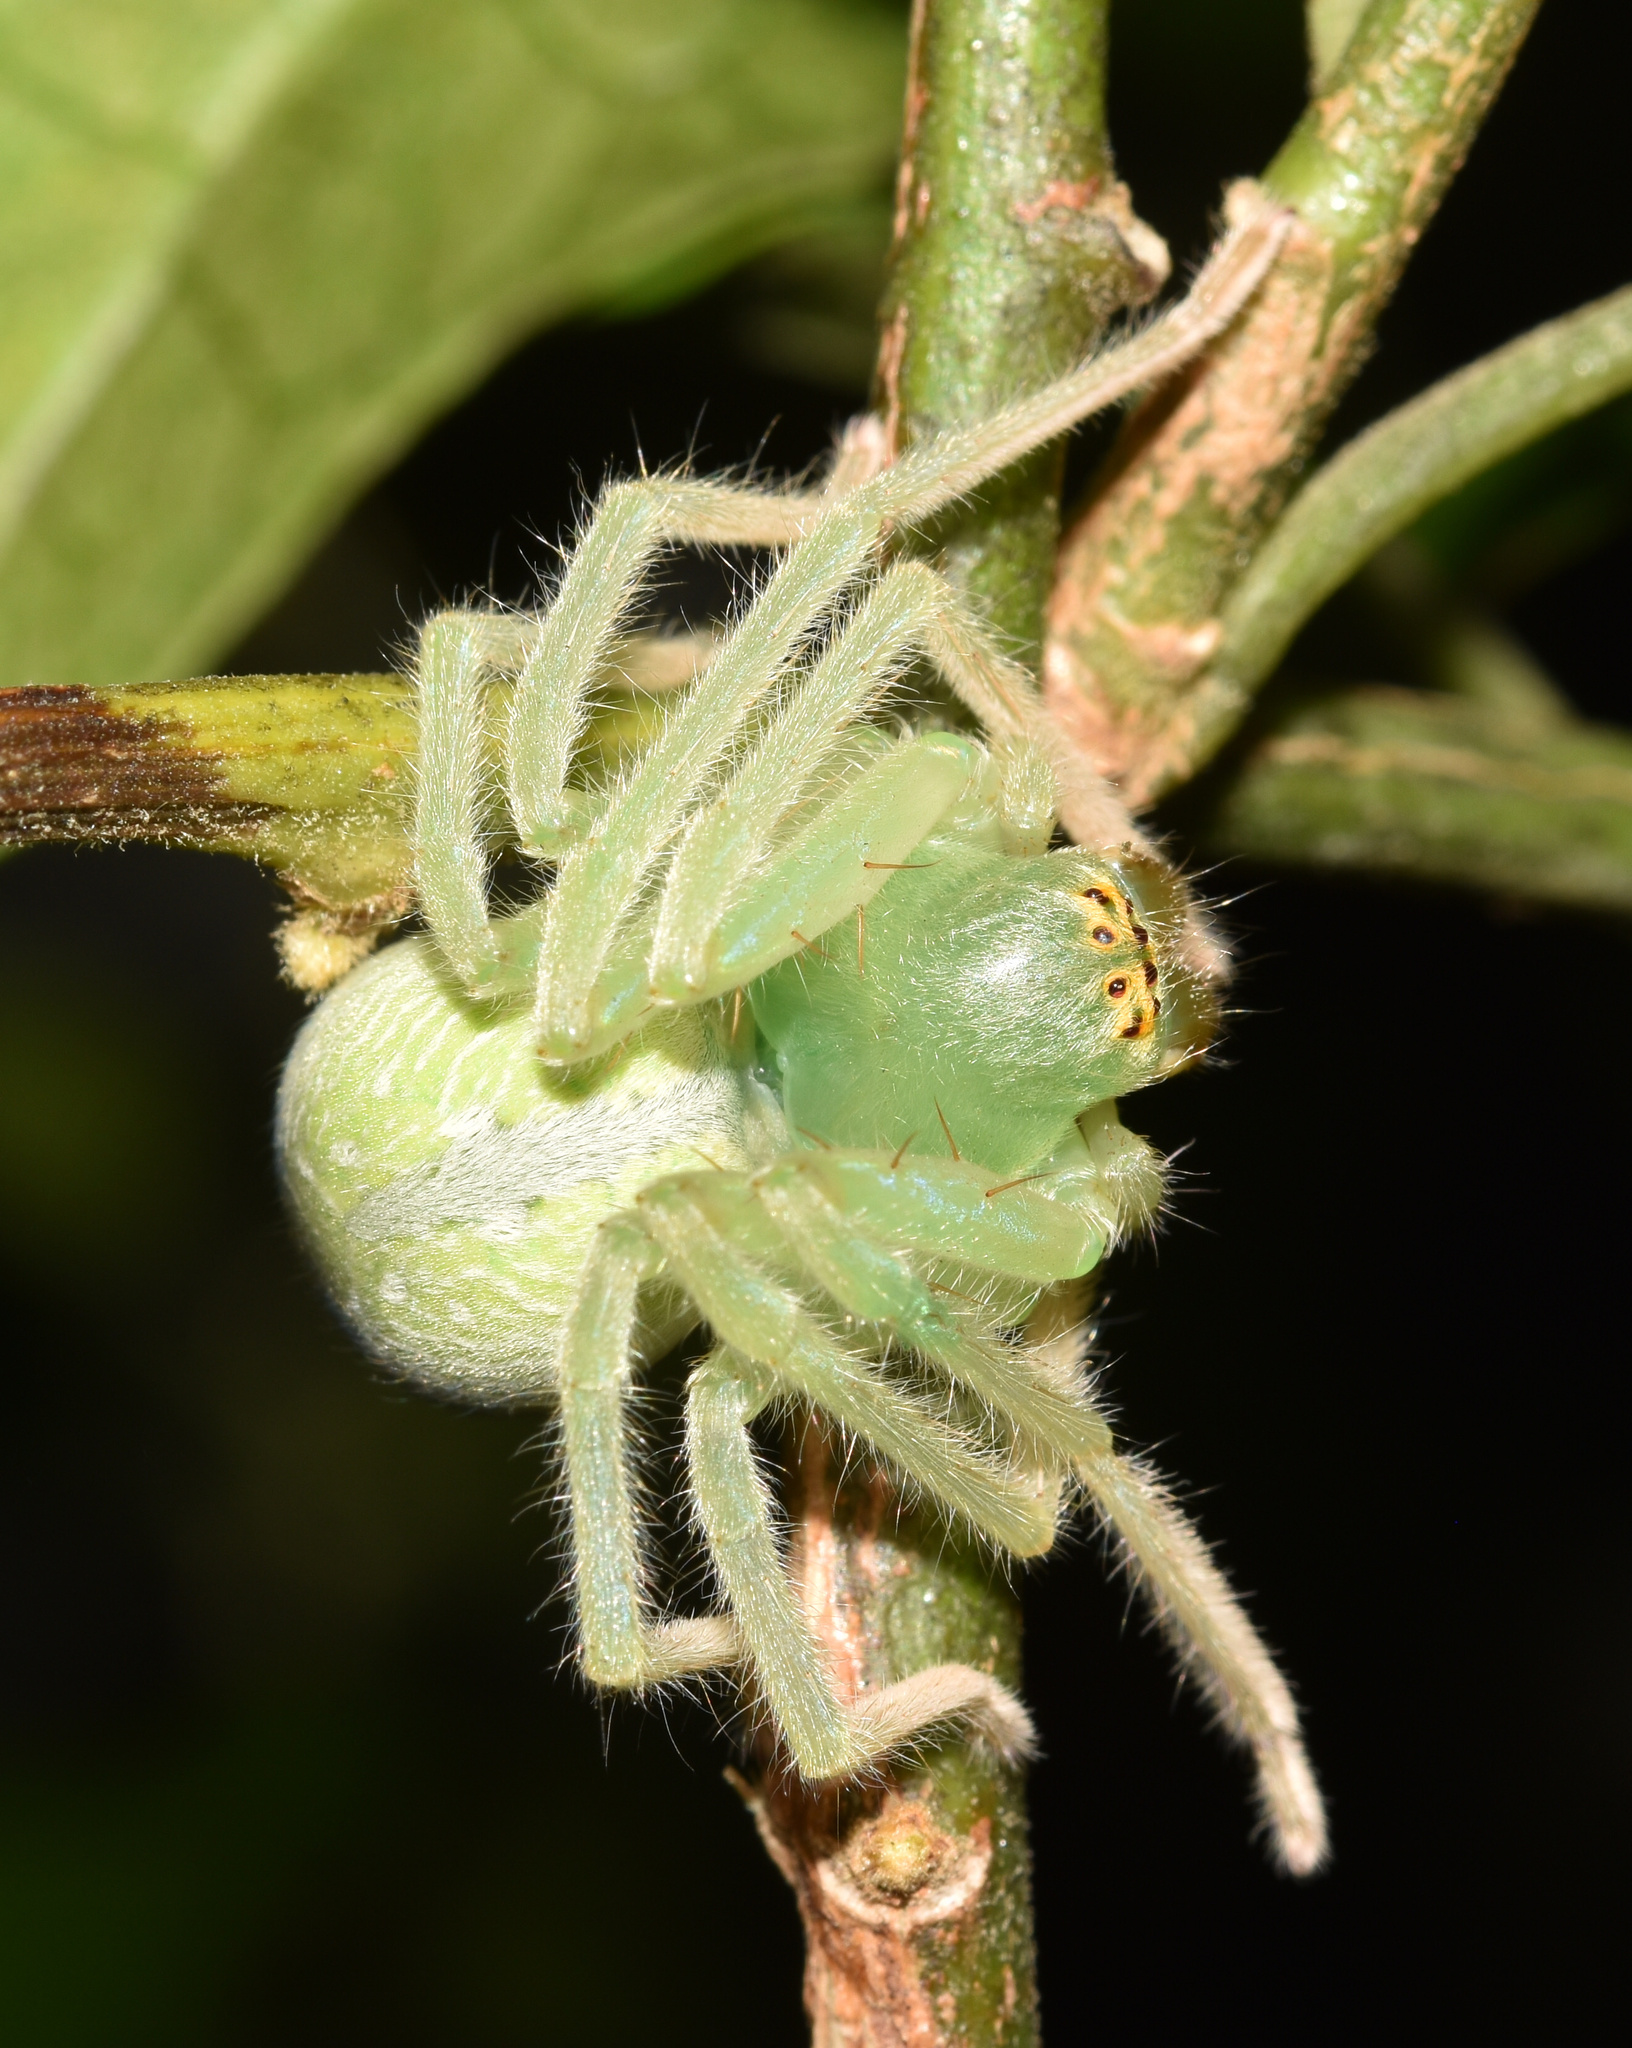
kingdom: Animalia
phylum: Arthropoda
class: Arachnida
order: Araneae
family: Sparassidae
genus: Olios
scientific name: Olios auricomis
